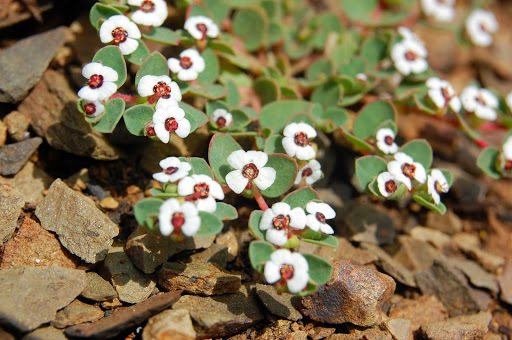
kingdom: Plantae
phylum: Tracheophyta
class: Magnoliopsida
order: Malpighiales
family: Euphorbiaceae
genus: Euphorbia
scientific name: Euphorbia polycarpa
